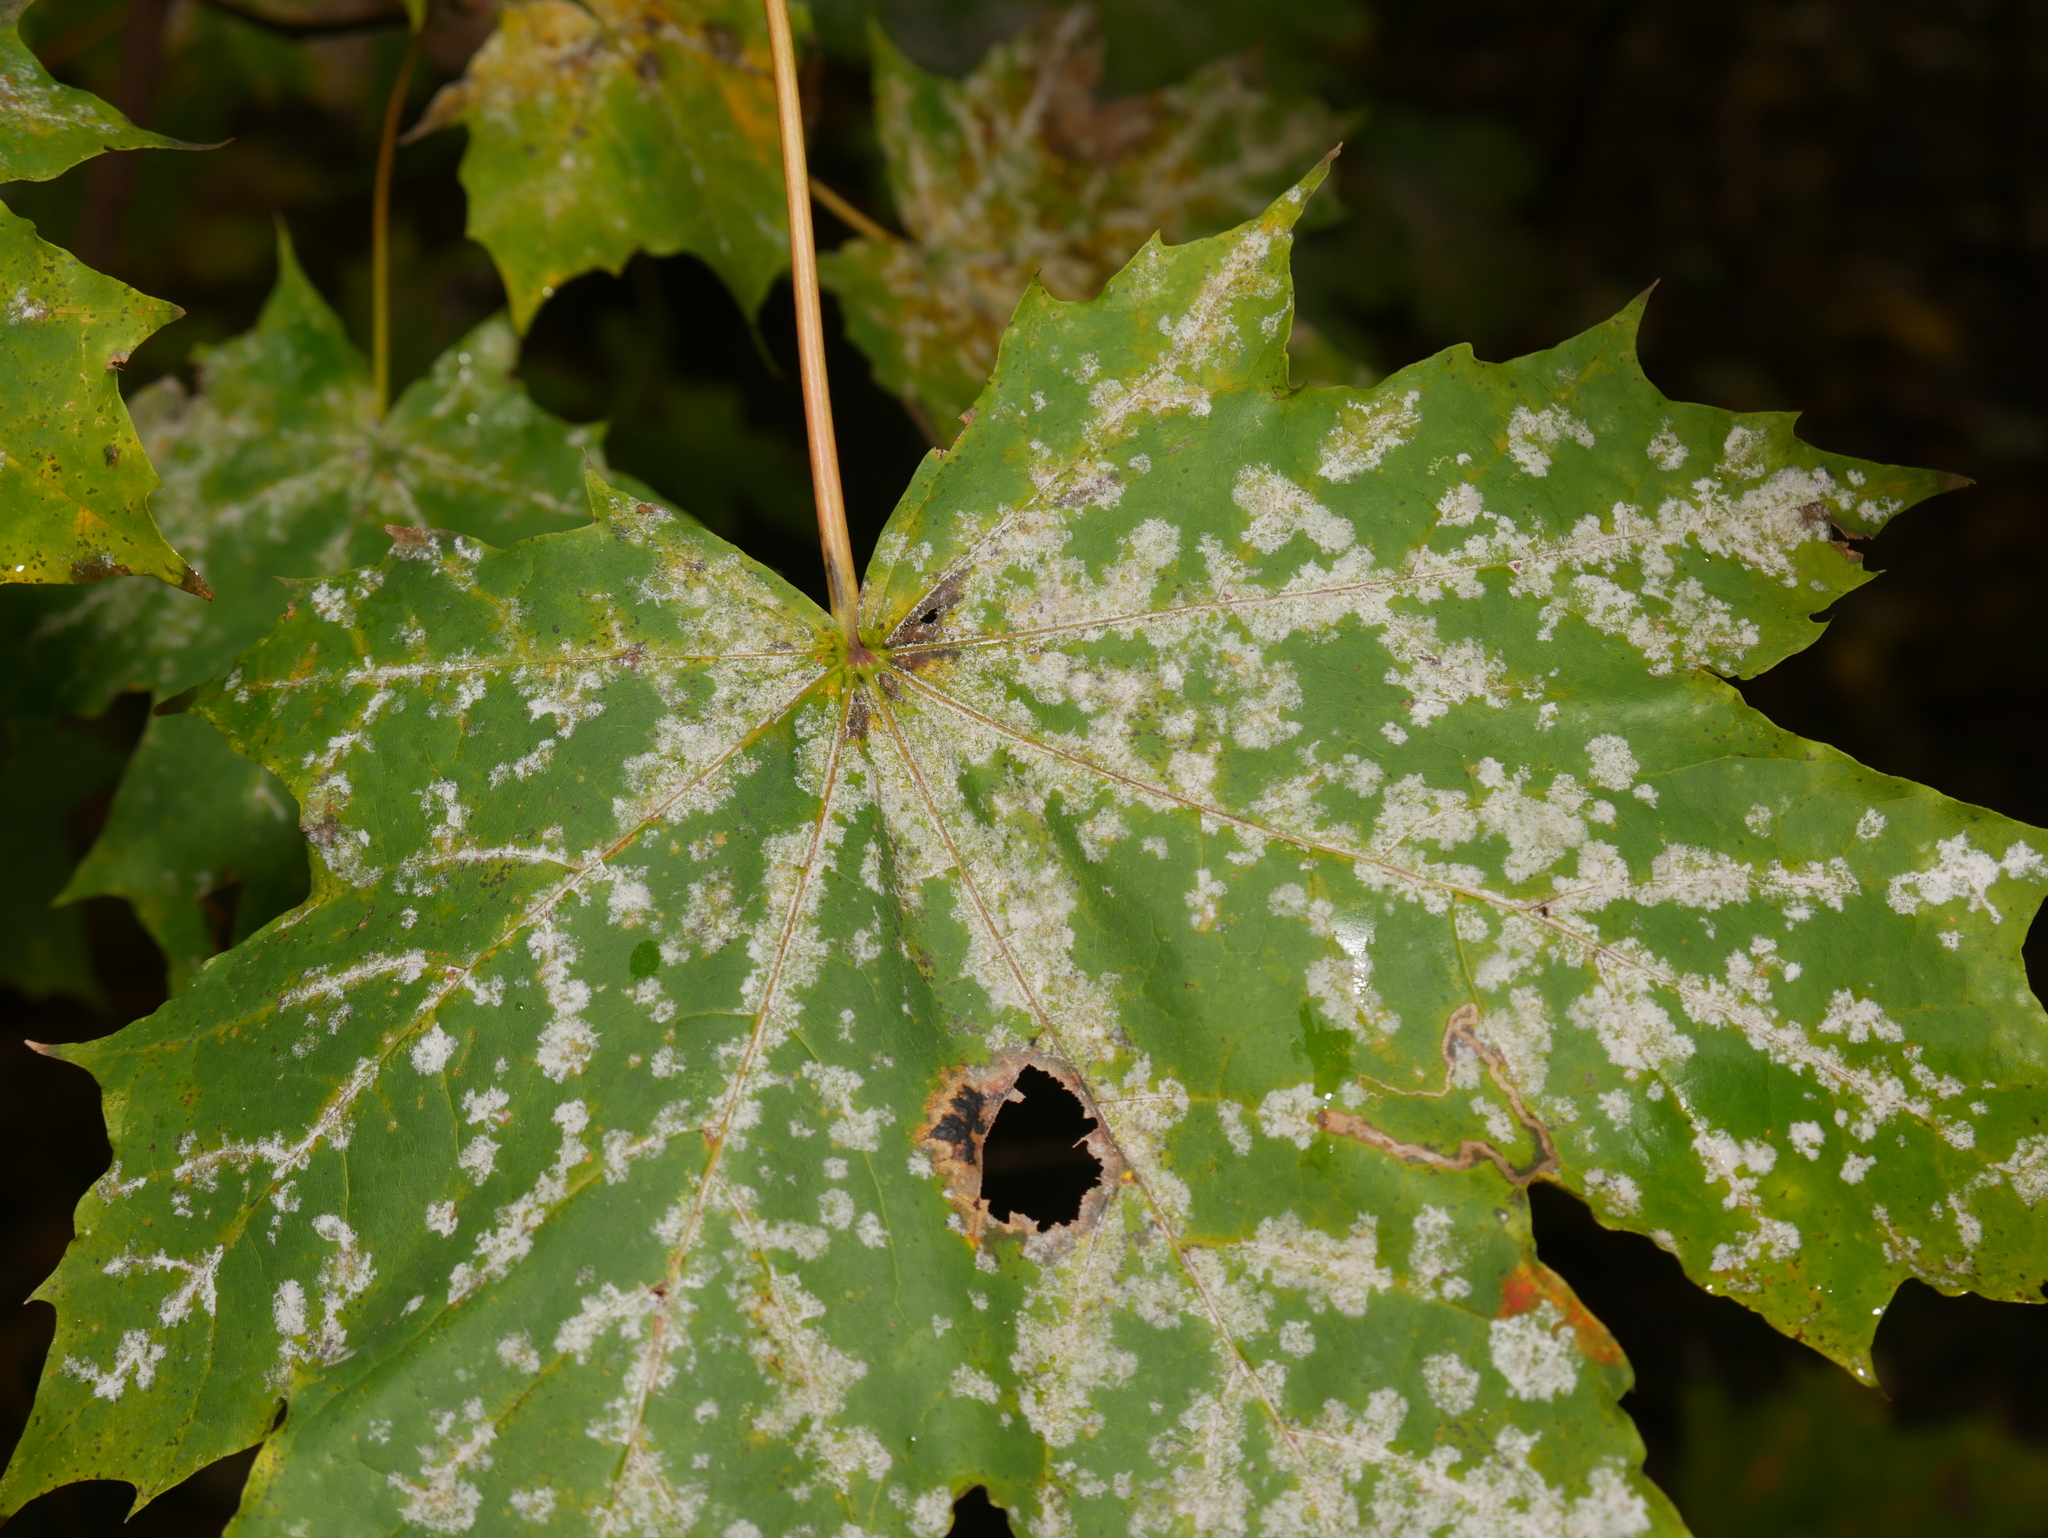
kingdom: Fungi
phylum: Ascomycota
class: Leotiomycetes
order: Rhytismatales
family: Rhytismataceae
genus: Rhytisma
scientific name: Rhytisma acerinum
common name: European tar spot
